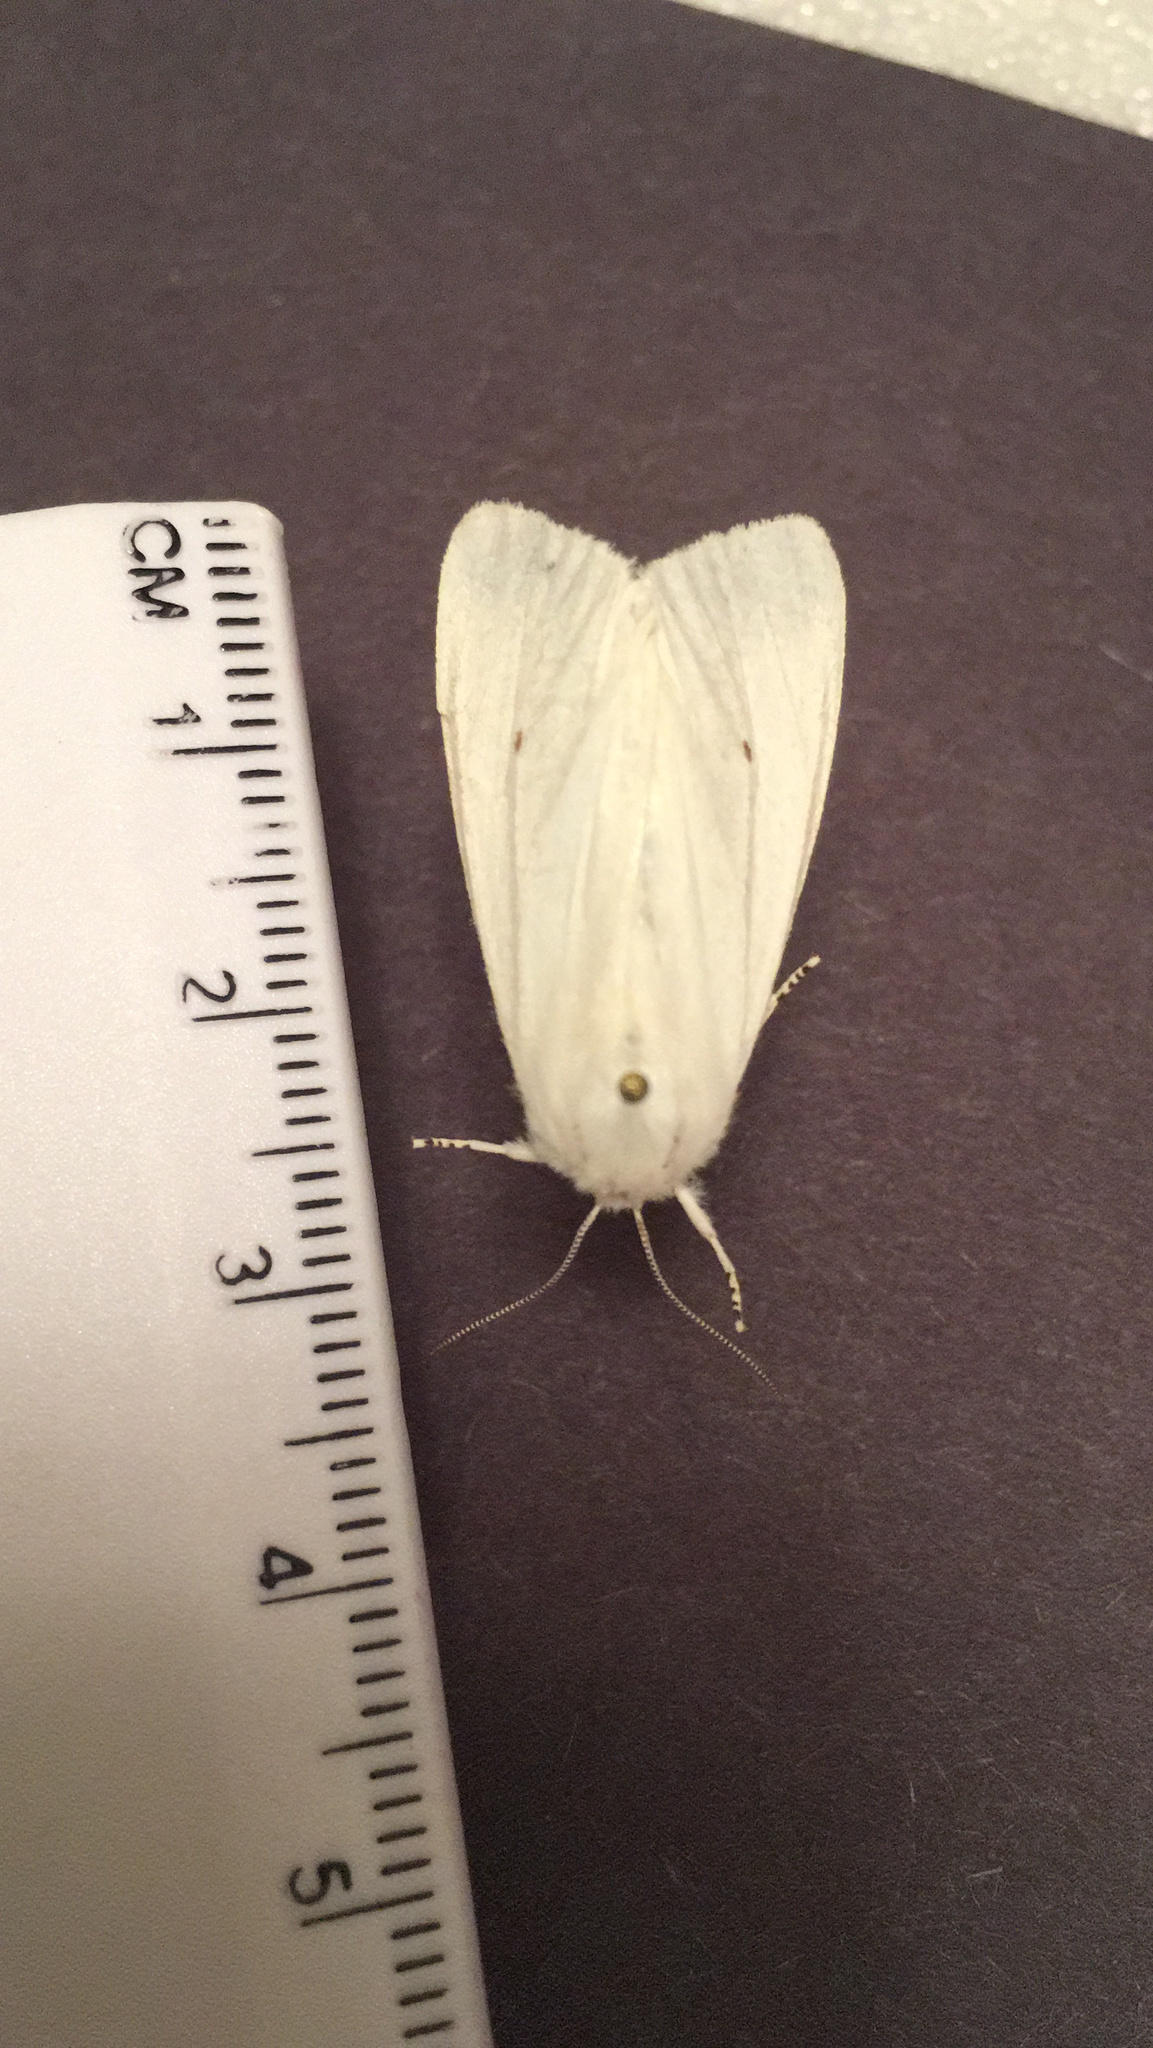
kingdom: Animalia
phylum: Arthropoda
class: Insecta
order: Lepidoptera
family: Erebidae
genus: Spilosoma
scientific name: Spilosoma virginica
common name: Virginia tiger moth
